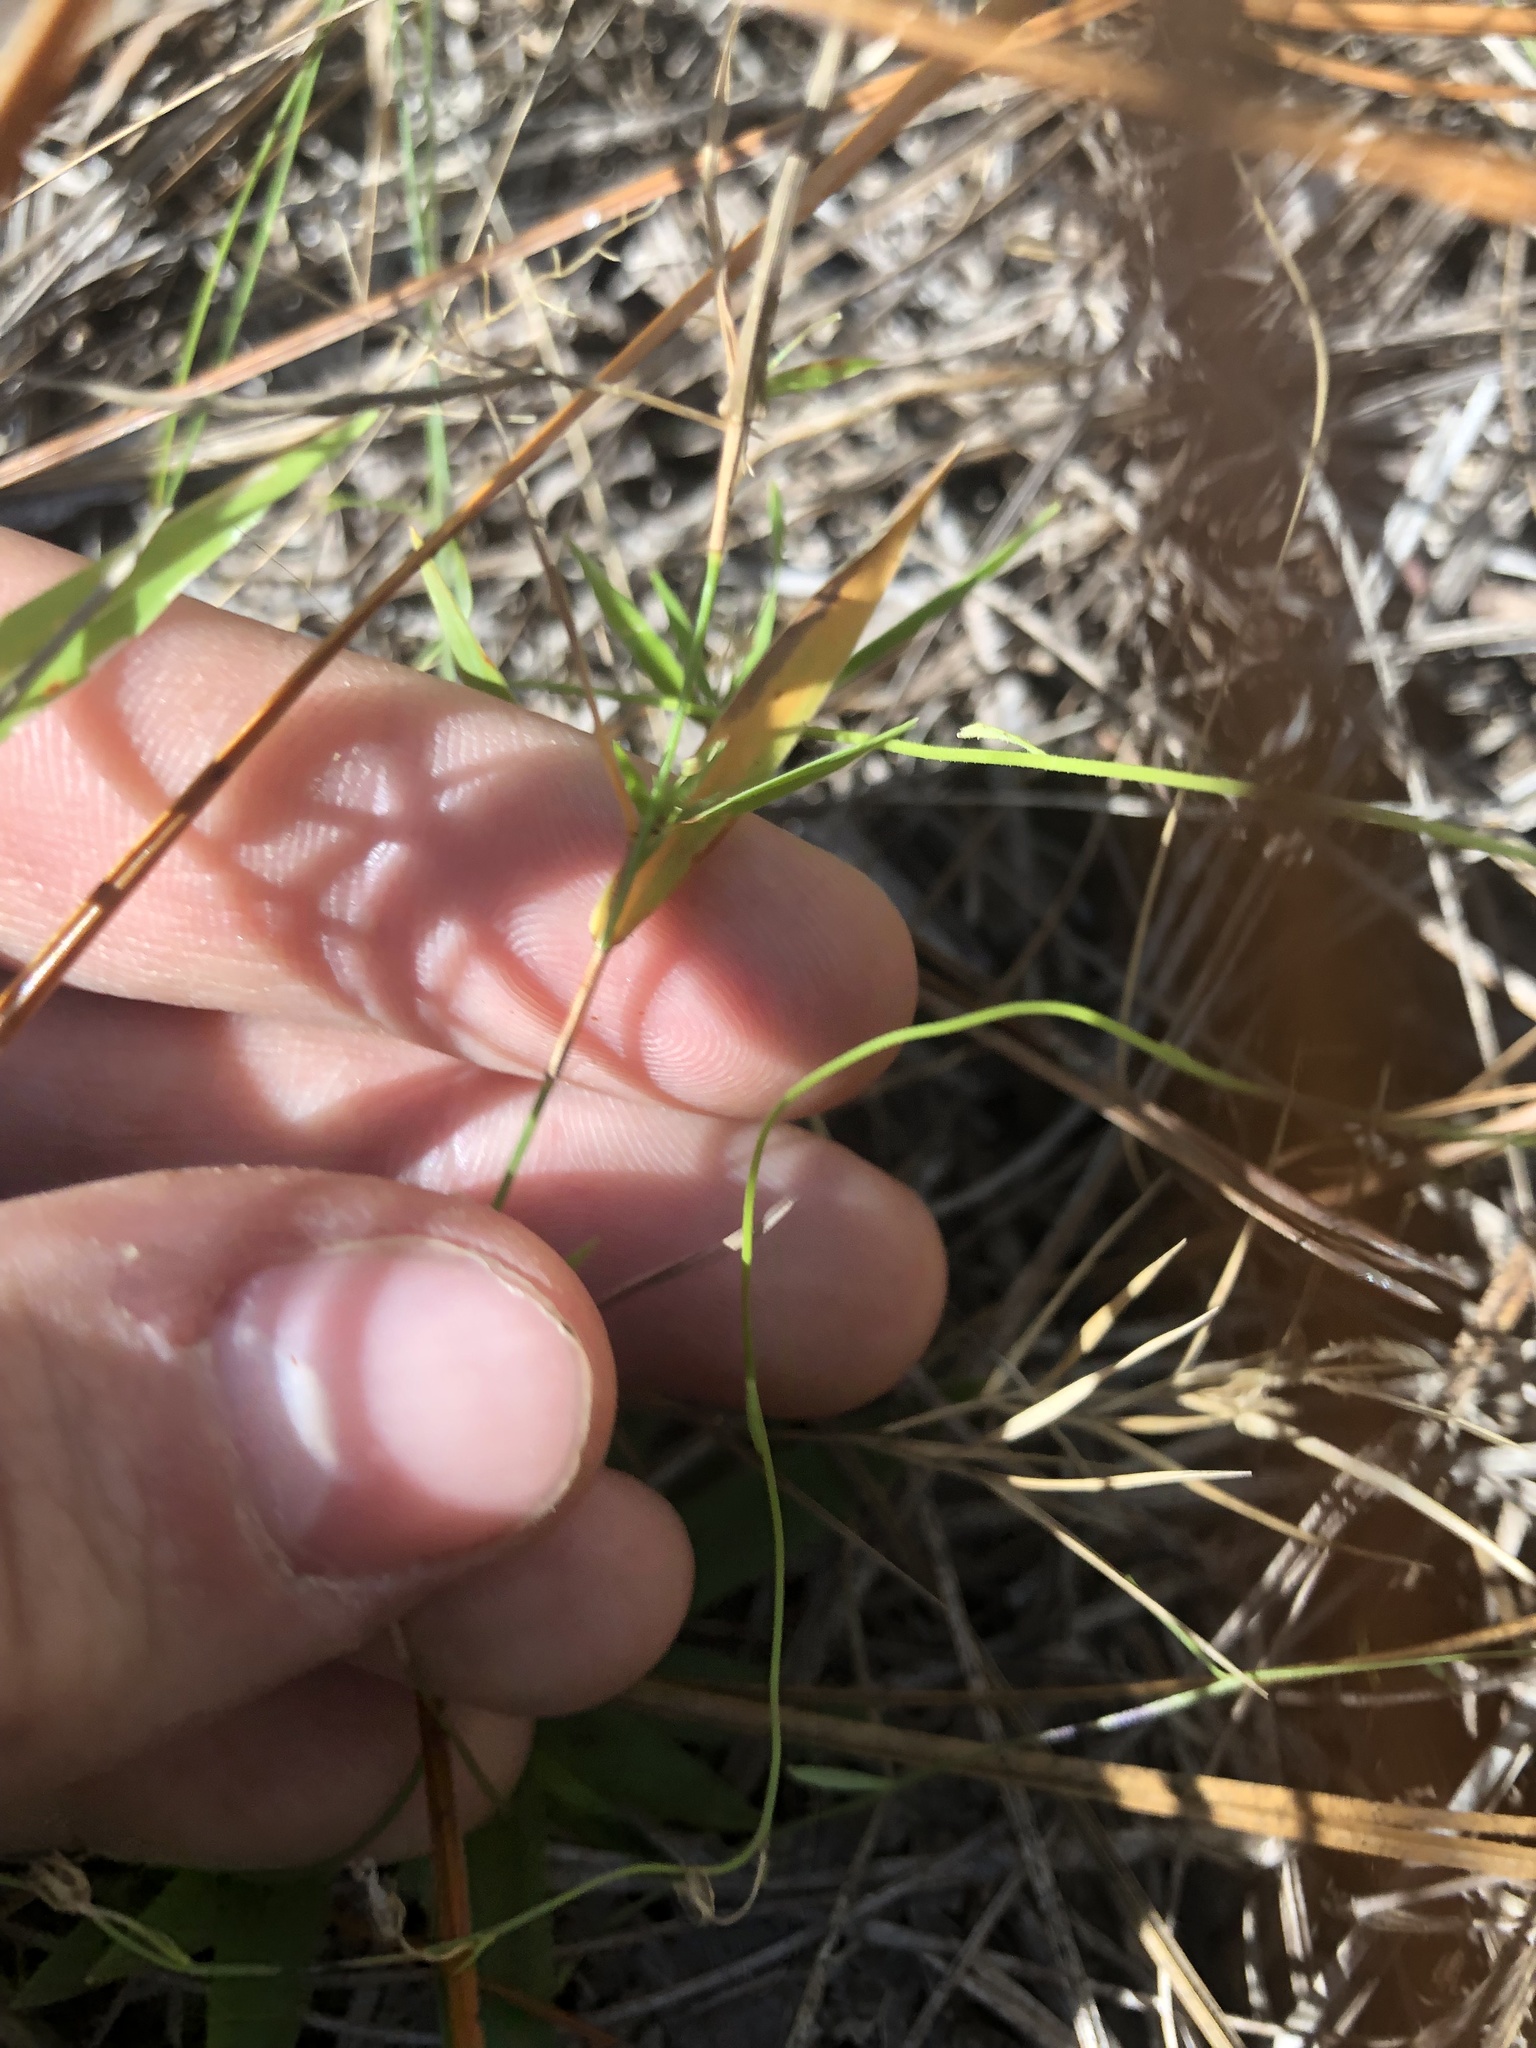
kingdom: Plantae
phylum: Tracheophyta
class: Liliopsida
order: Poales
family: Poaceae
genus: Dichanthelium
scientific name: Dichanthelium tenue
